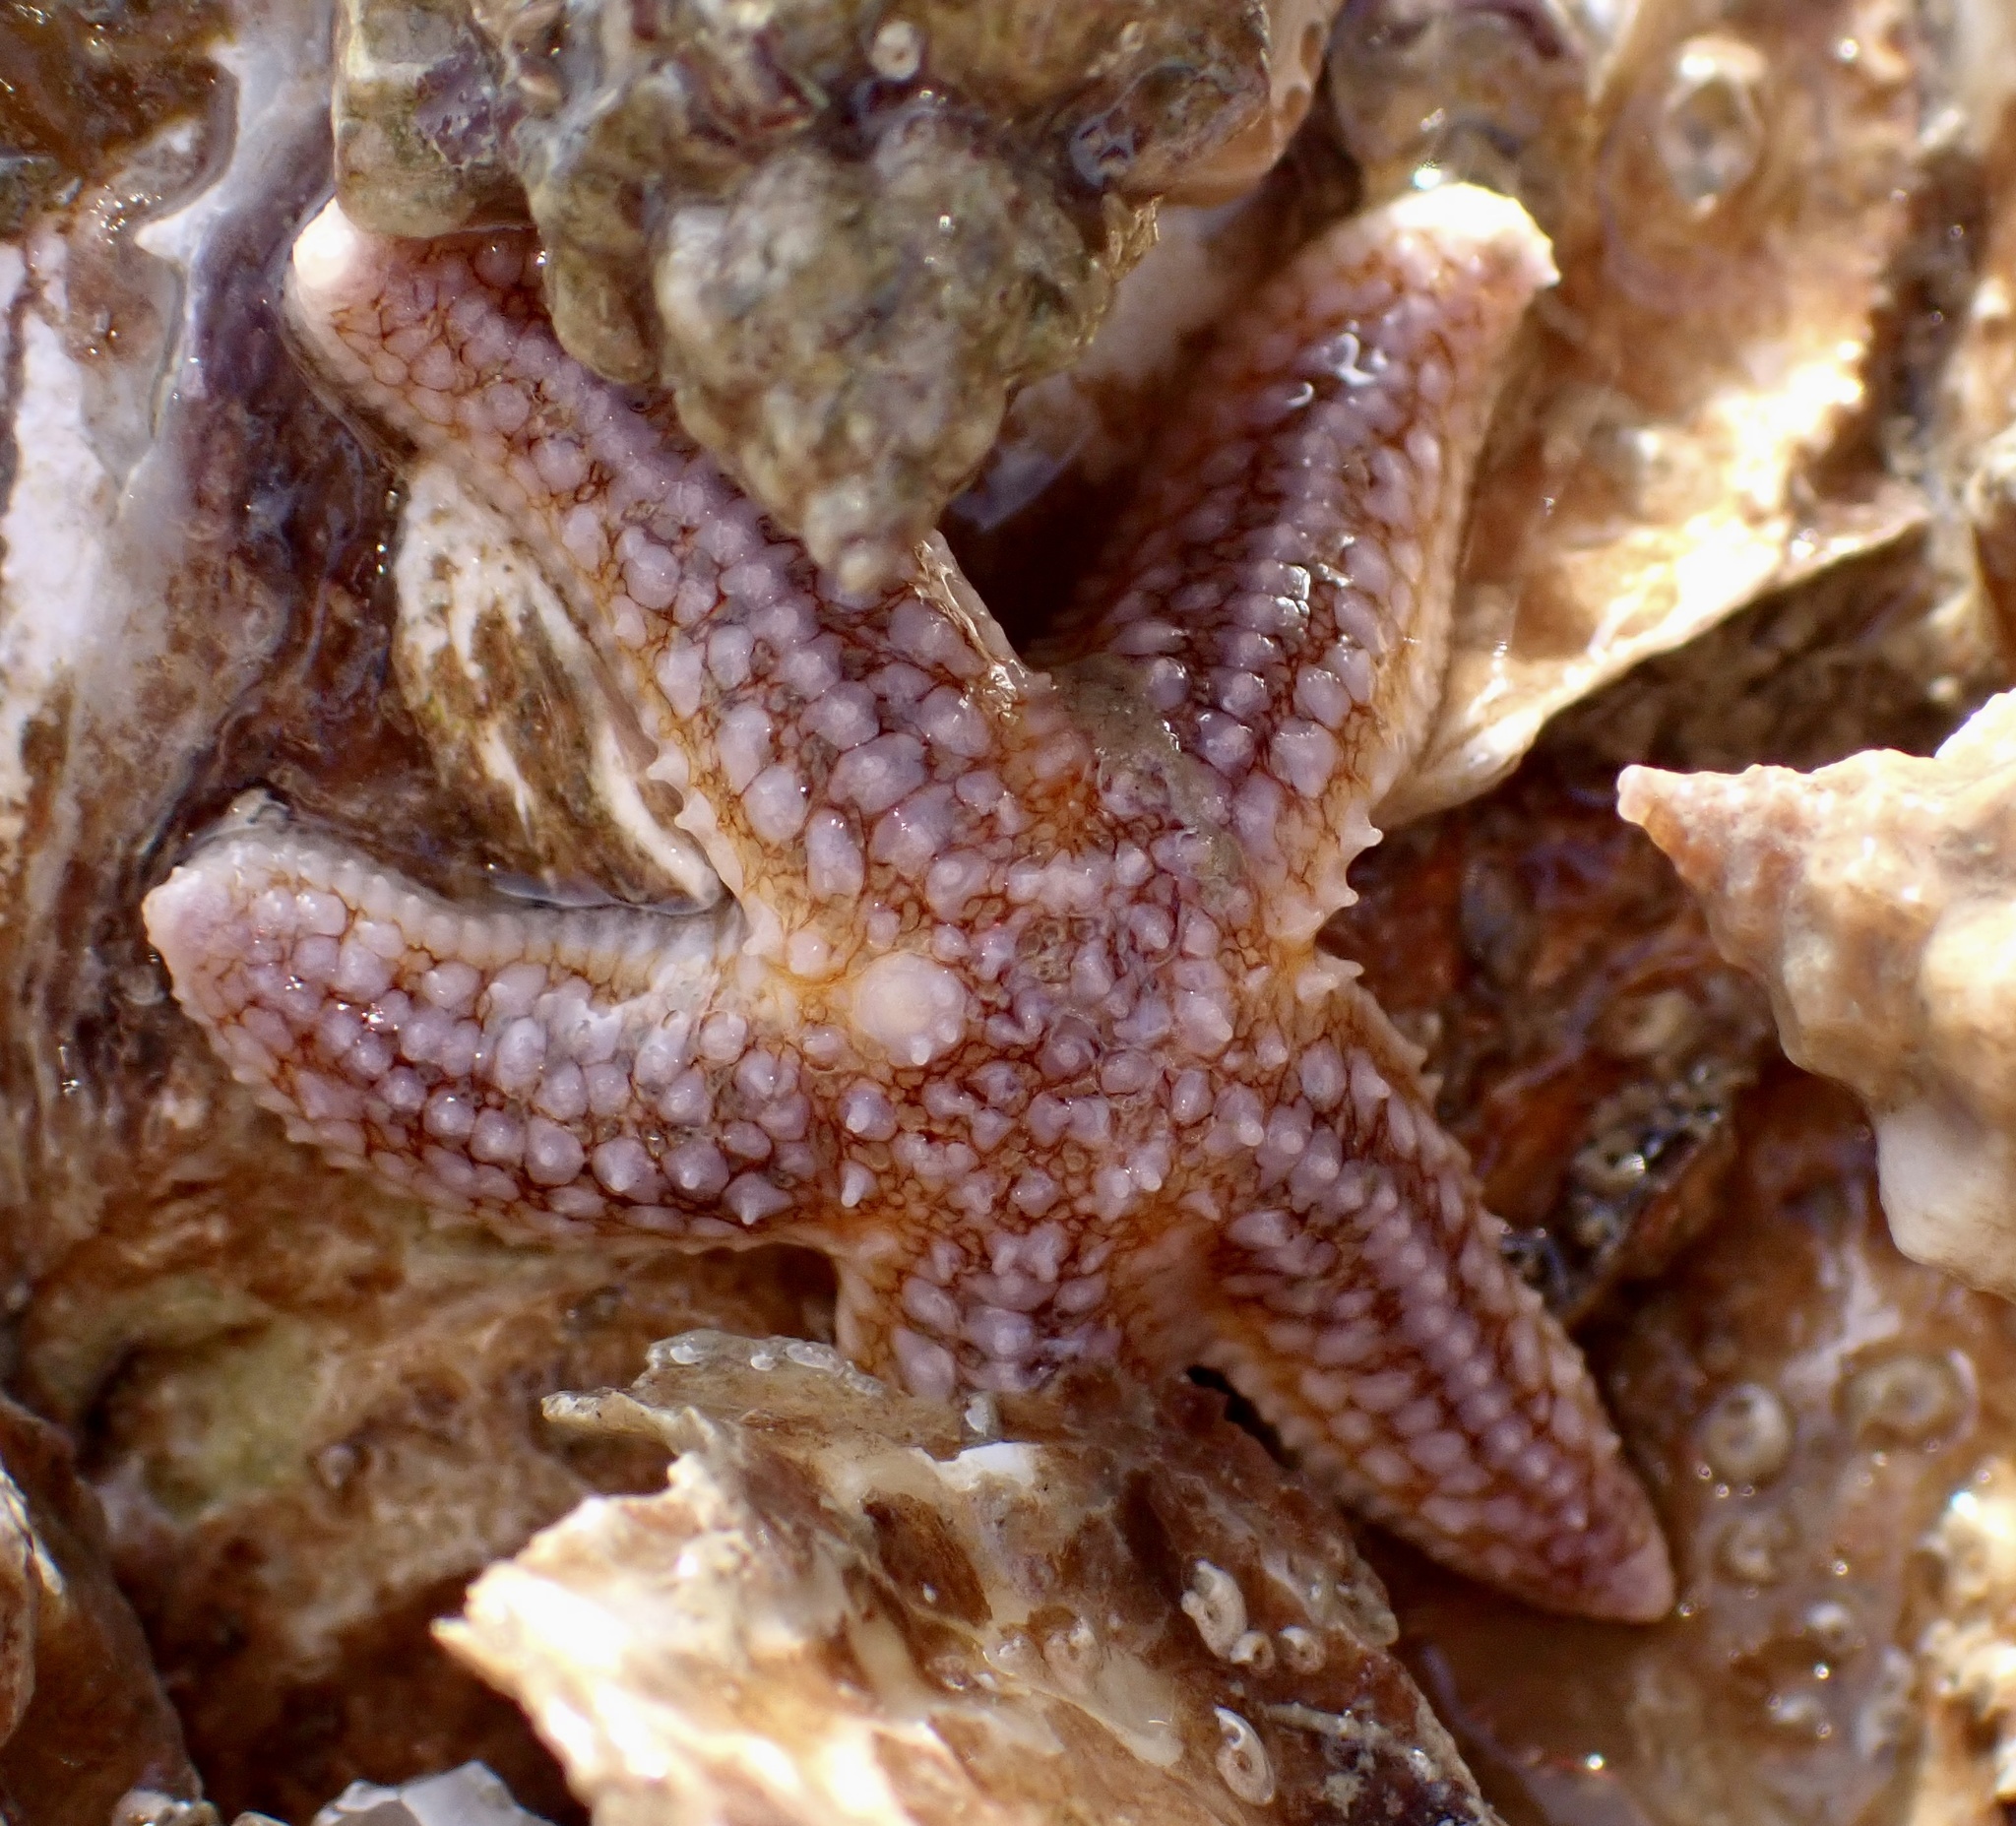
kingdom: Animalia
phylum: Echinodermata
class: Asteroidea
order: Forcipulatida
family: Asteriidae
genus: Asterias
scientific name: Asterias rubens
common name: Common starfish
